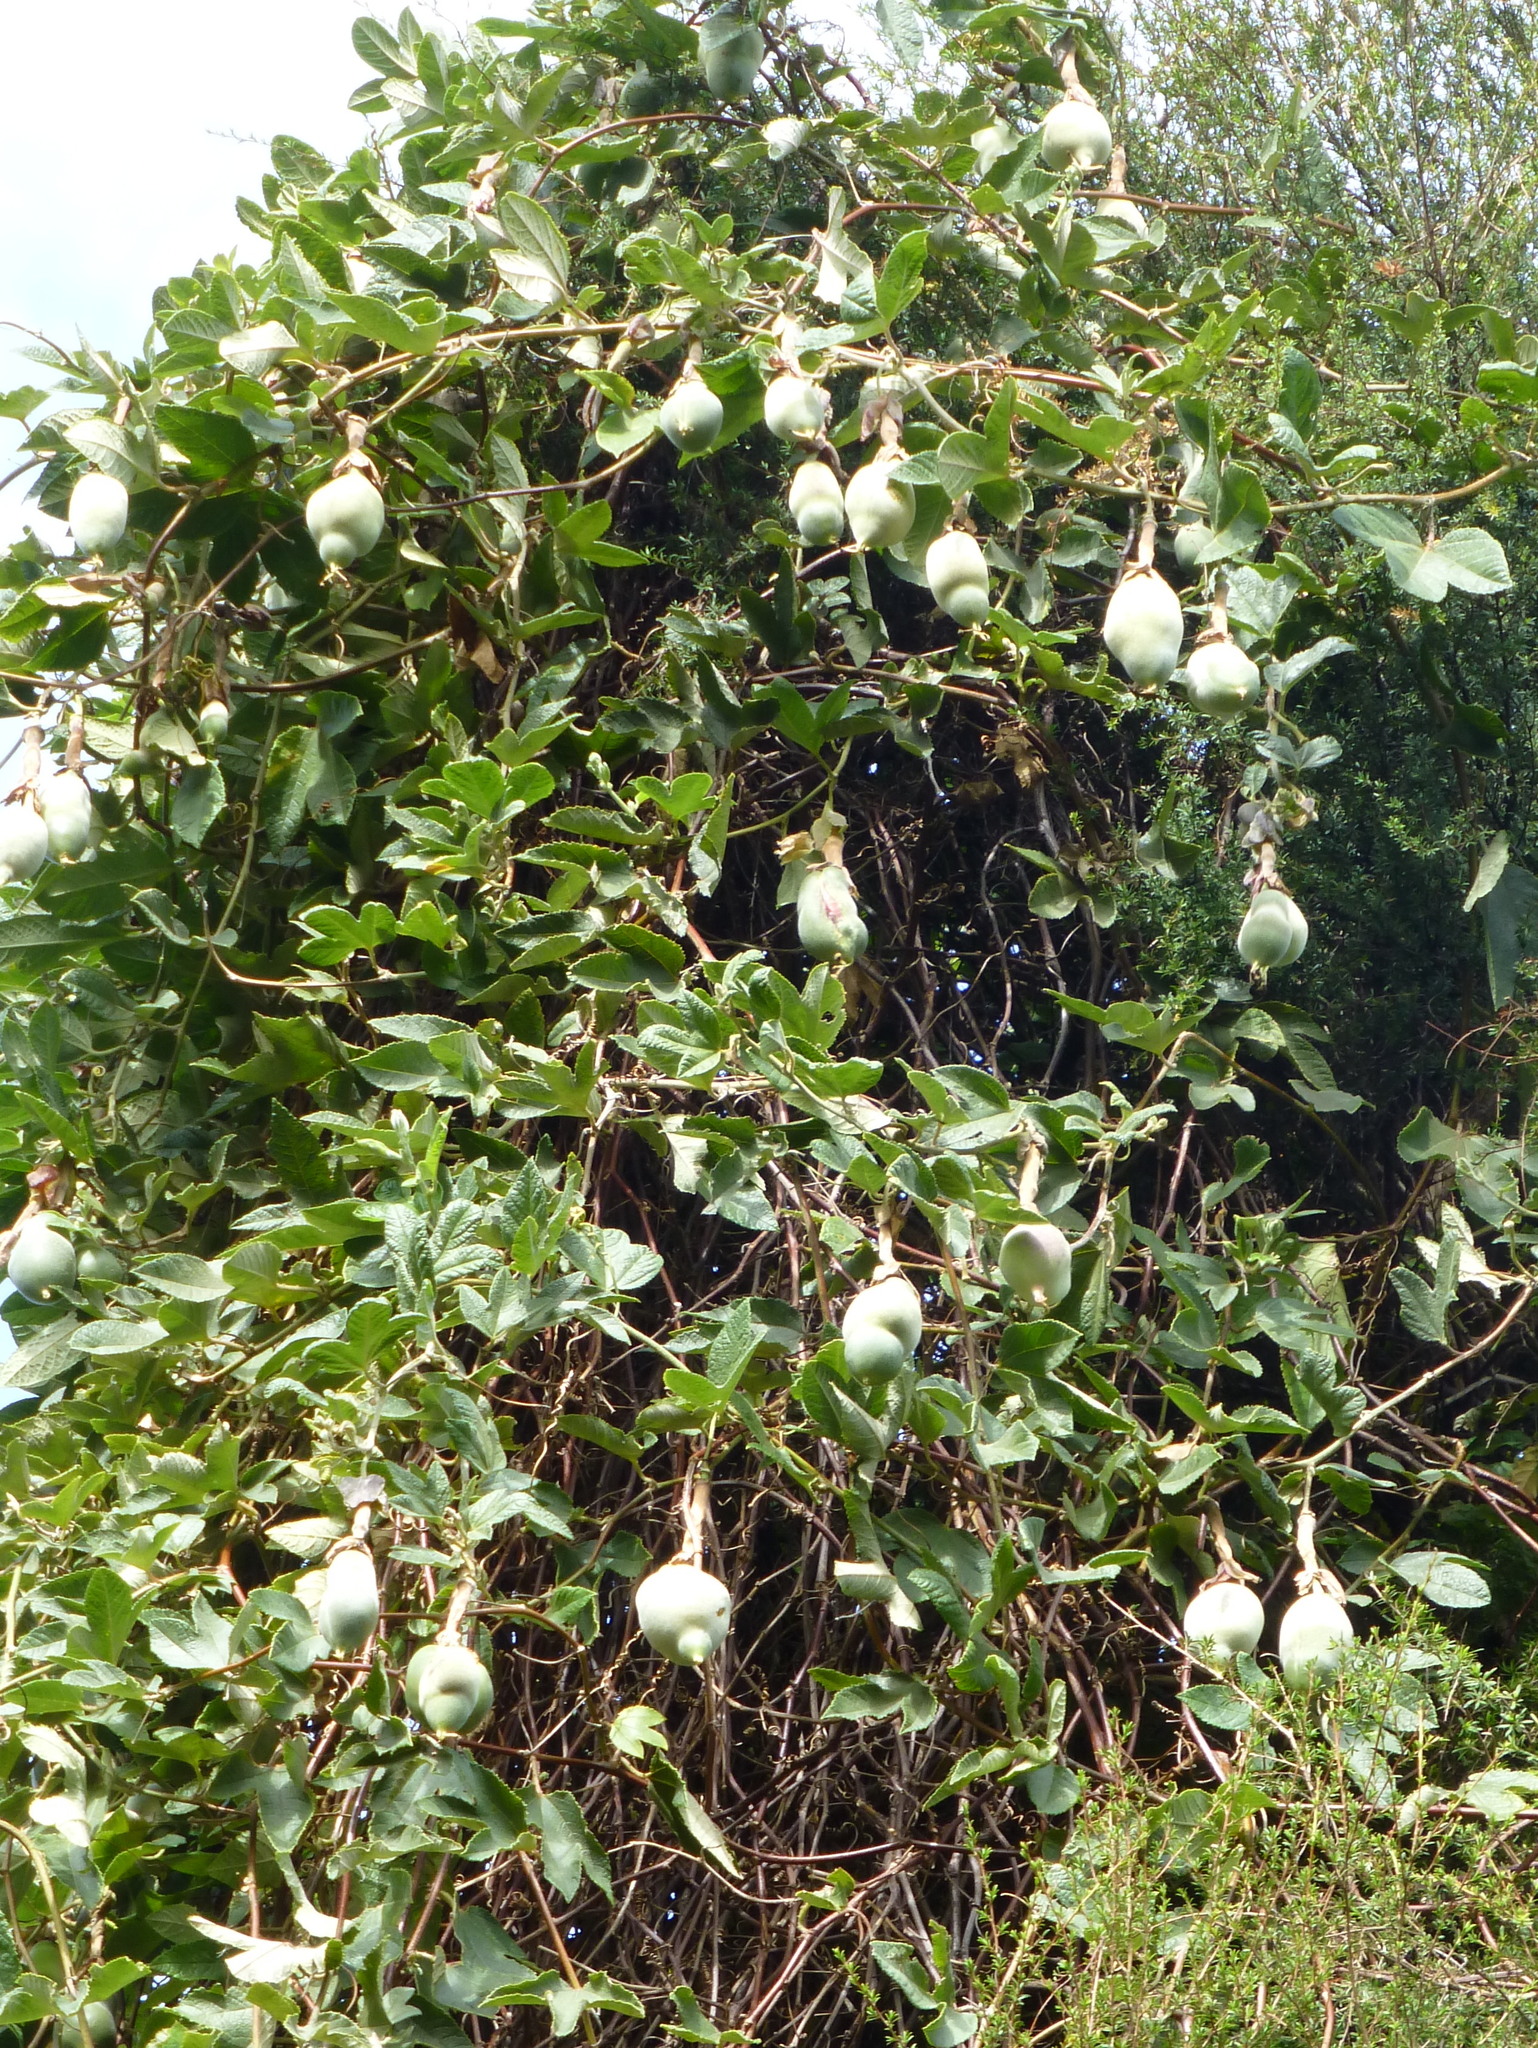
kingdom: Plantae
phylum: Tracheophyta
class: Magnoliopsida
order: Malpighiales
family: Passifloraceae
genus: Passiflora
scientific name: Passiflora rosea
